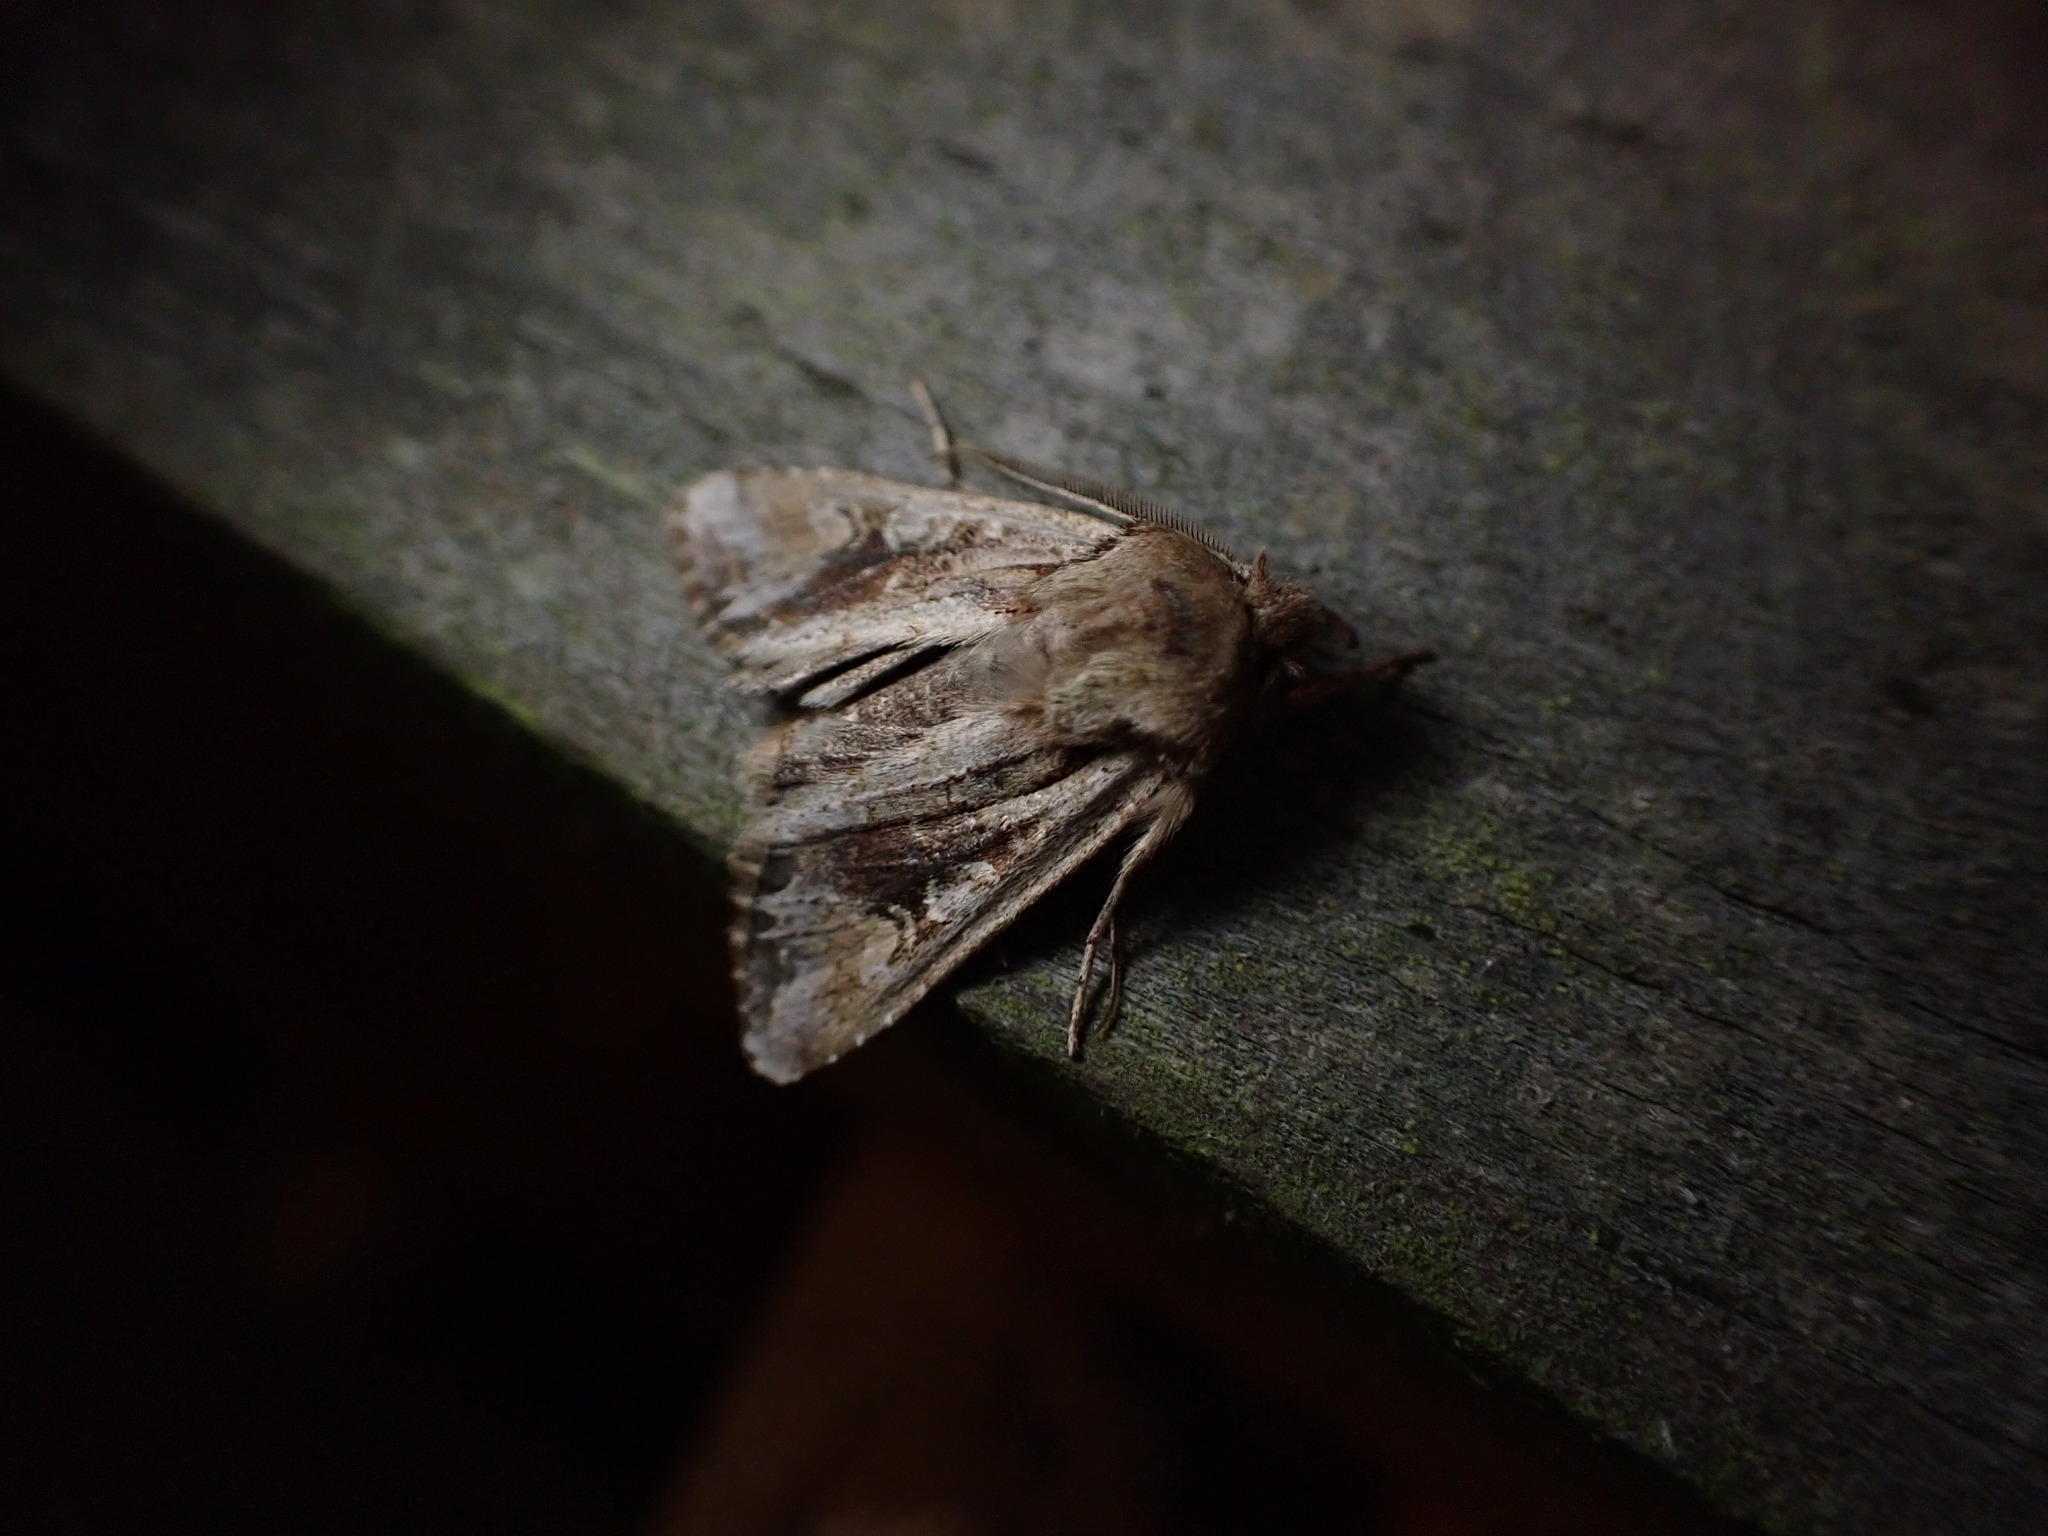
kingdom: Animalia
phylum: Arthropoda
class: Insecta
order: Lepidoptera
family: Noctuidae
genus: Ichneutica
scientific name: Ichneutica
